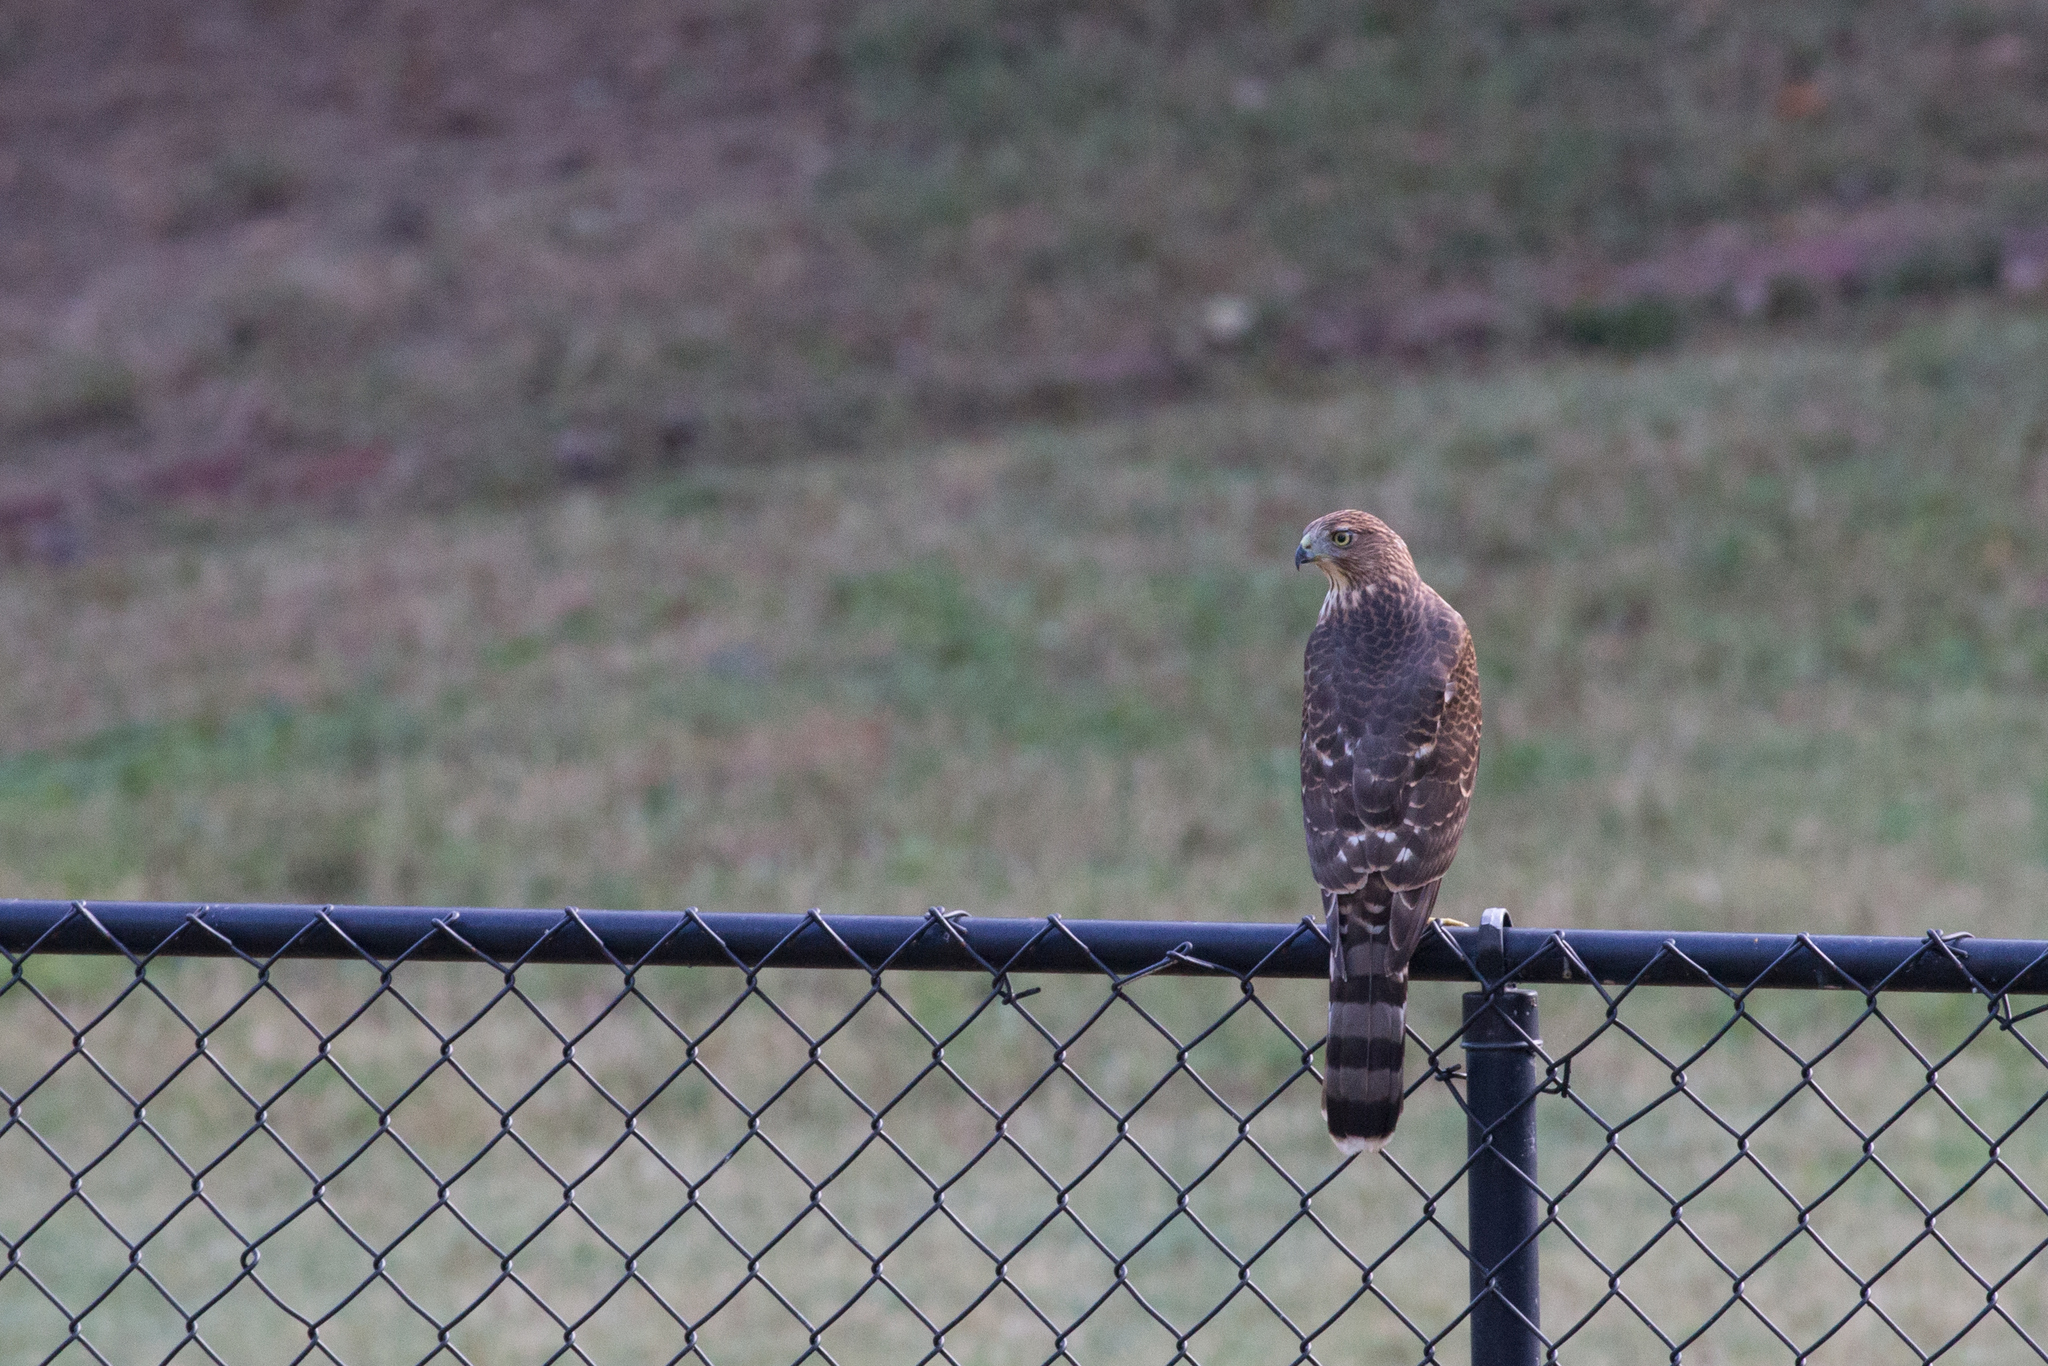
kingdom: Animalia
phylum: Chordata
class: Aves
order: Accipitriformes
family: Accipitridae
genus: Accipiter
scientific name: Accipiter cooperii
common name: Cooper's hawk
